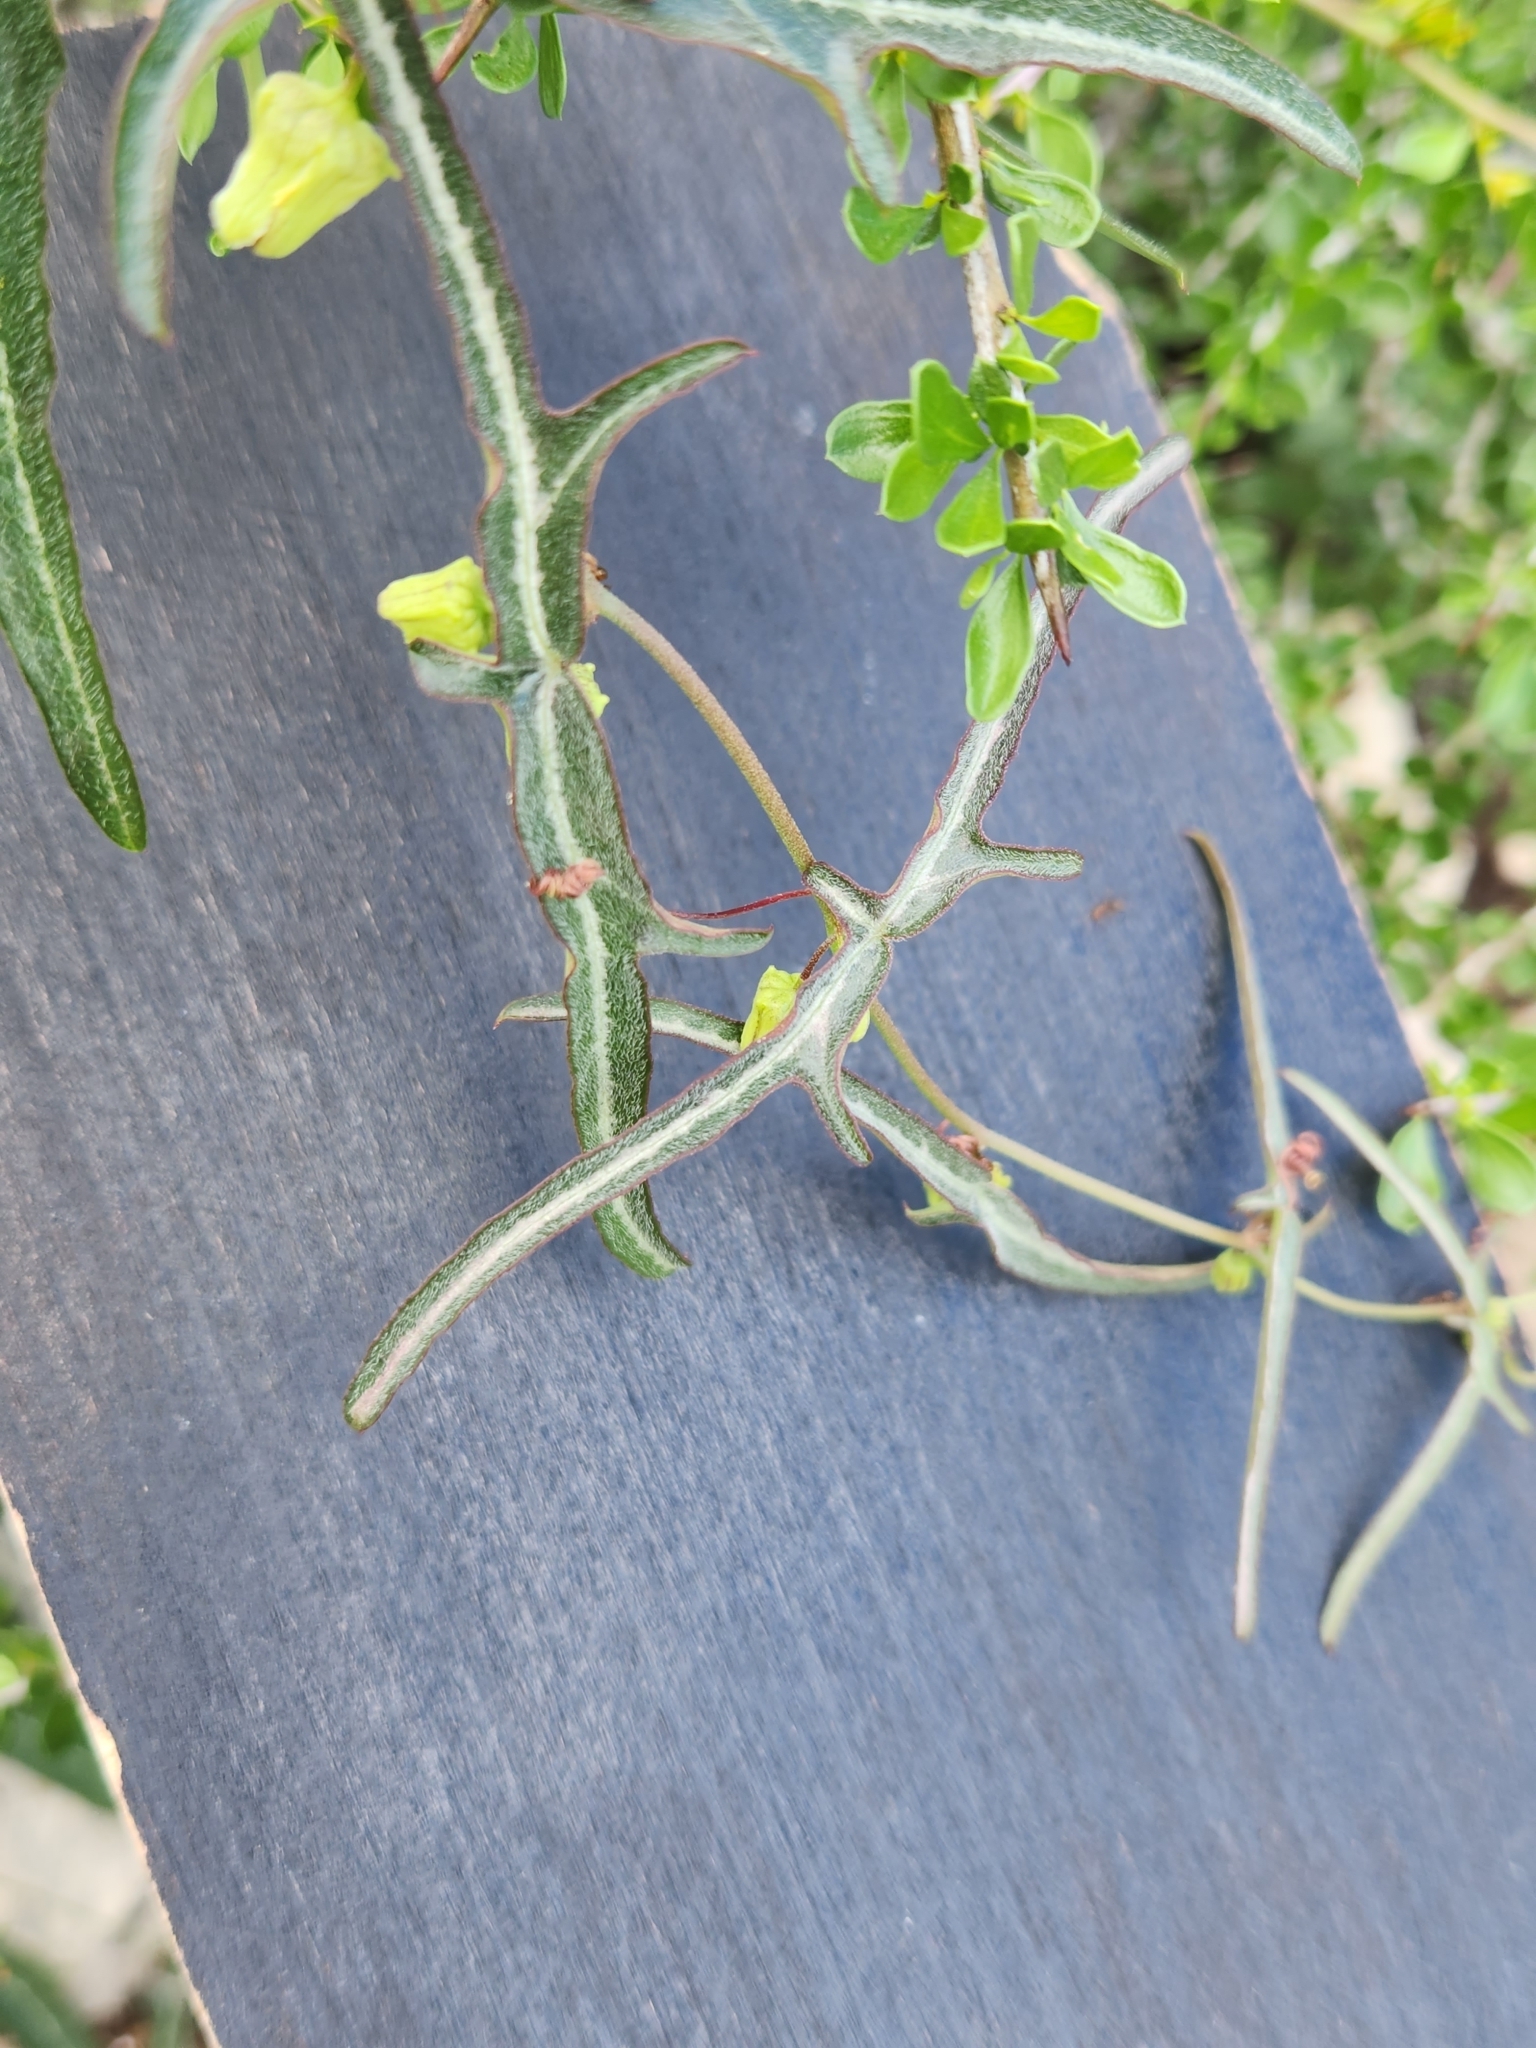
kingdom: Plantae
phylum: Tracheophyta
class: Magnoliopsida
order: Malpighiales
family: Passifloraceae
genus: Passiflora
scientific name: Passiflora tenuiloba
